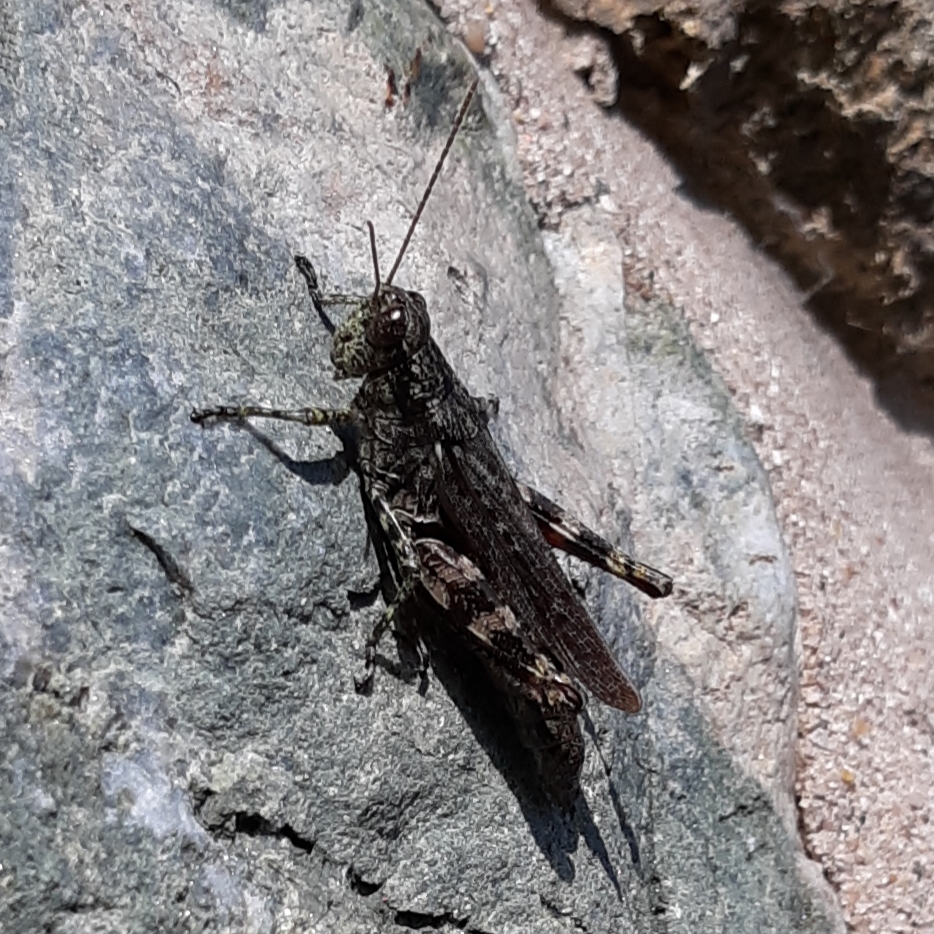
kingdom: Animalia
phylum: Arthropoda
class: Insecta
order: Orthoptera
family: Acrididae
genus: Melanoplus
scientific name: Melanoplus punctulatus
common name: Pine-tree spur-throat grasshopper
